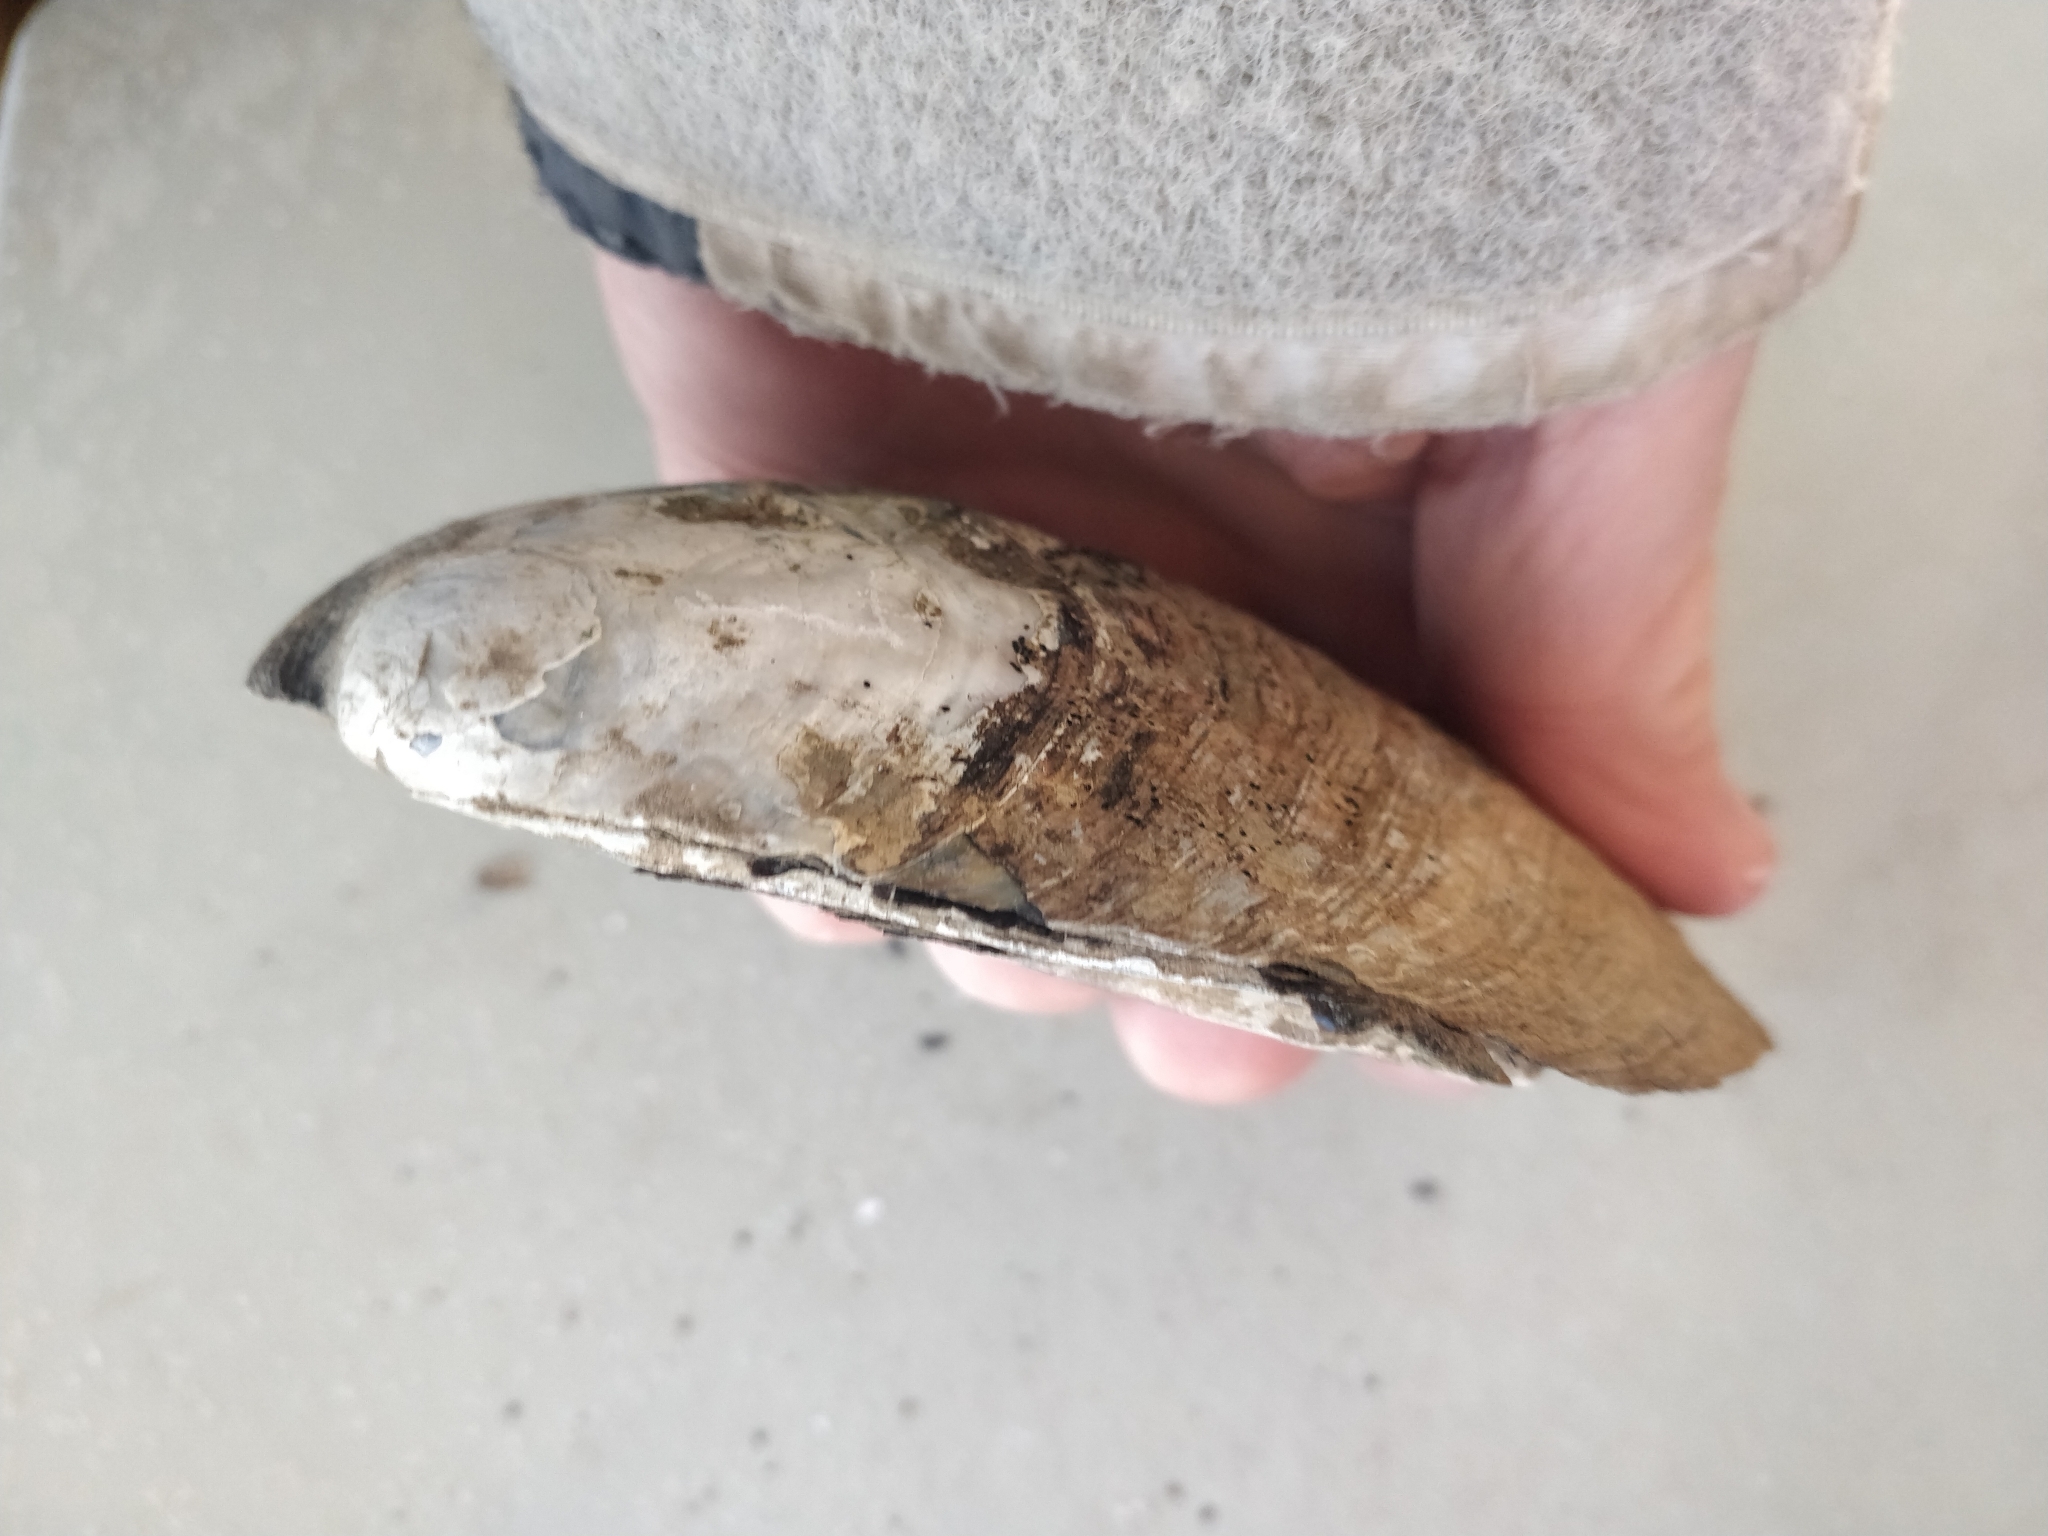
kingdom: Animalia
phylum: Mollusca
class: Bivalvia
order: Unionida
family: Unionidae
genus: Amblema
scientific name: Amblema plicata
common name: Threeridge
